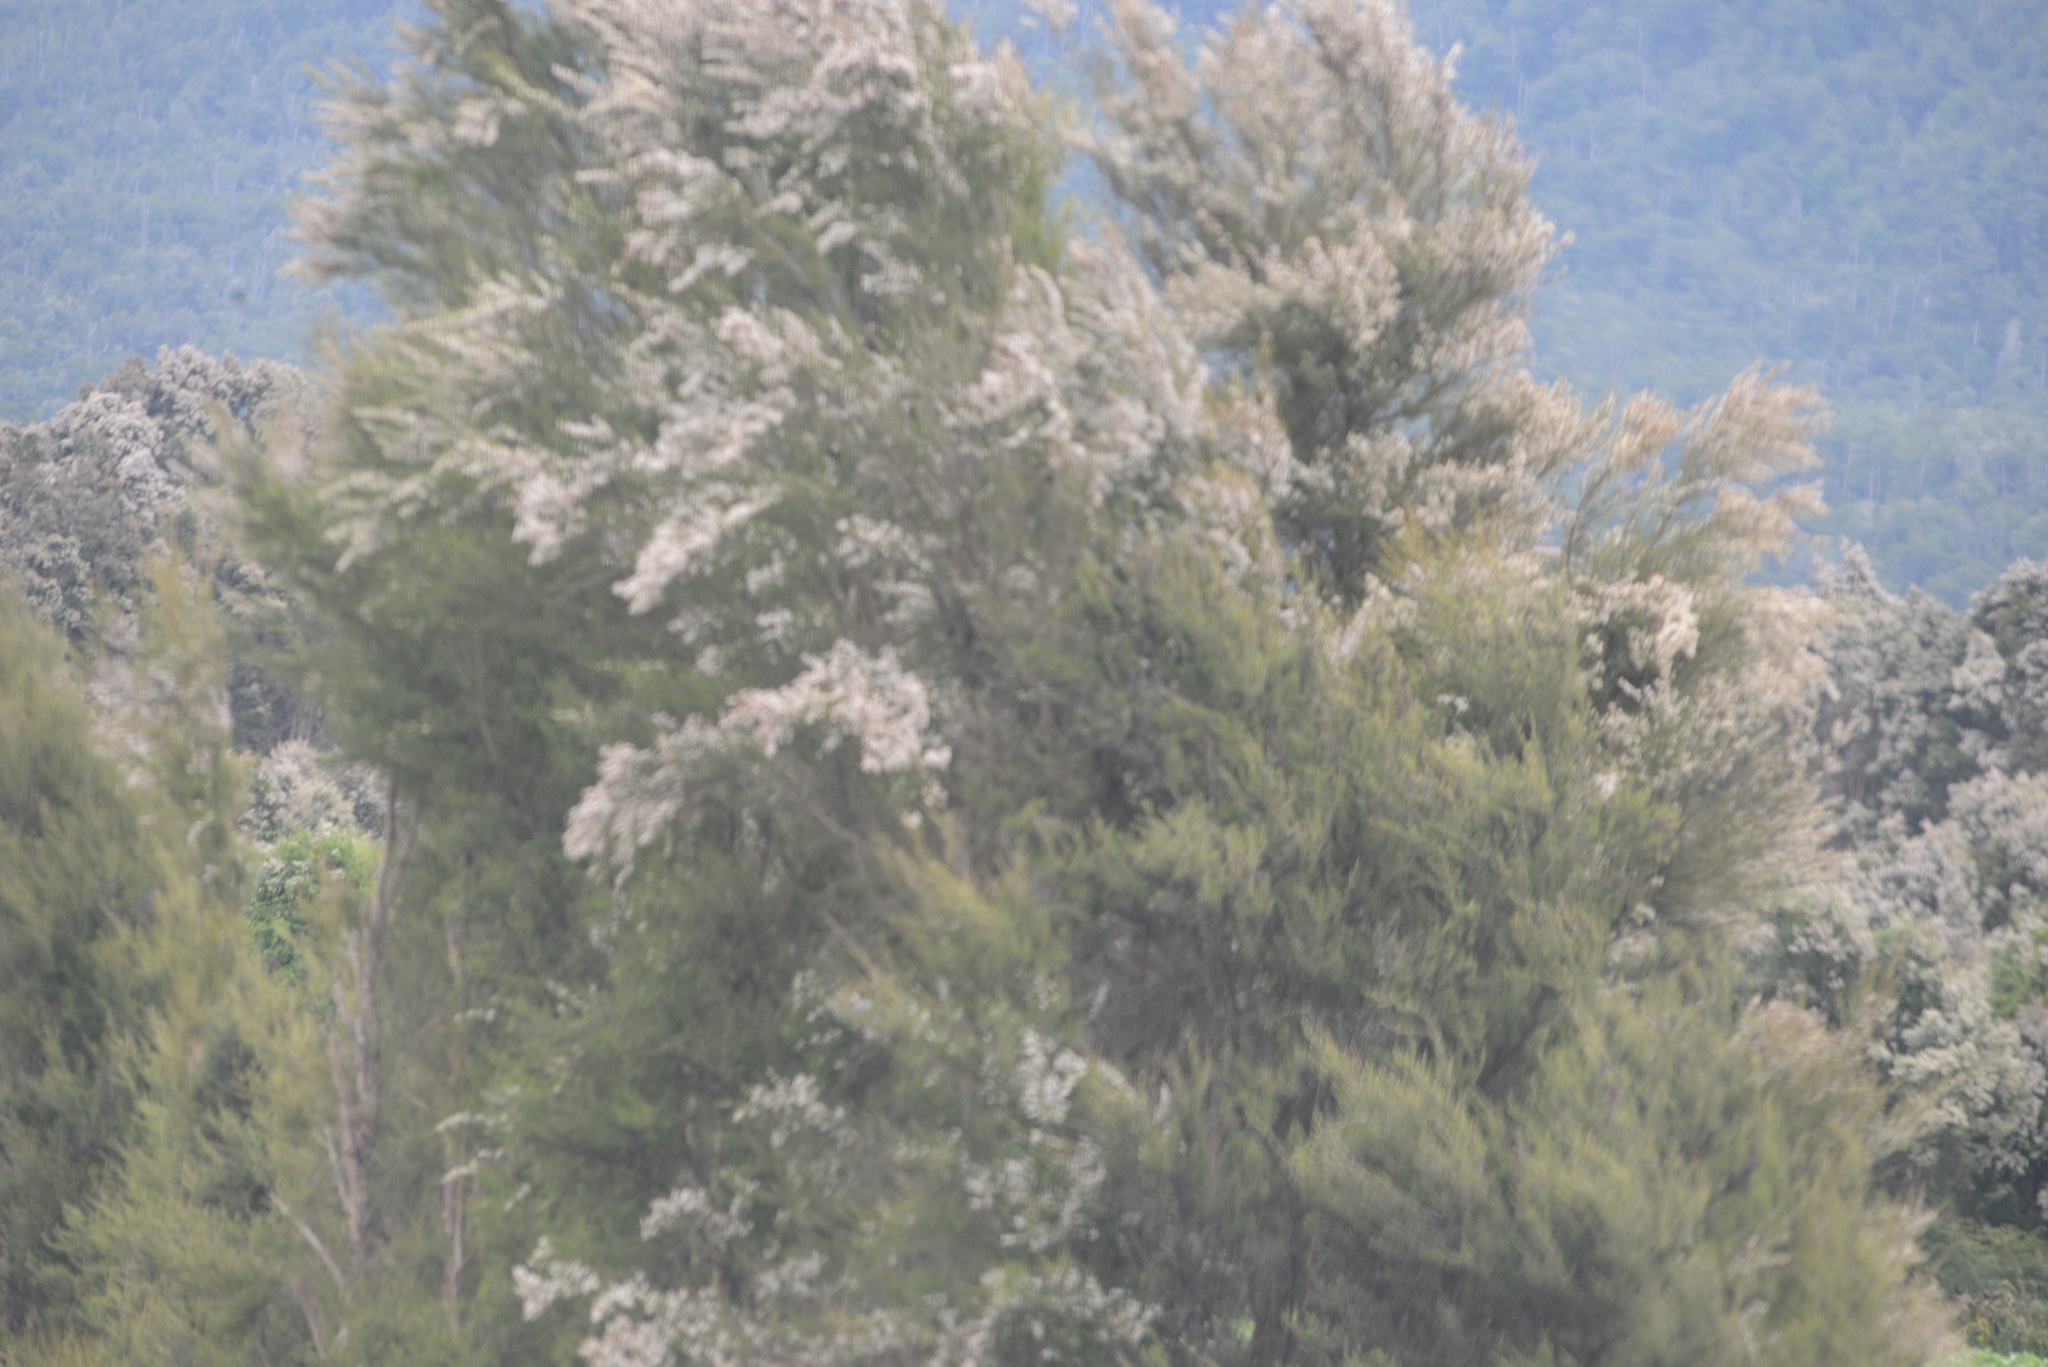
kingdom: Plantae
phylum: Tracheophyta
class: Magnoliopsida
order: Myrtales
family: Myrtaceae
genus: Kunzea
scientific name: Kunzea
